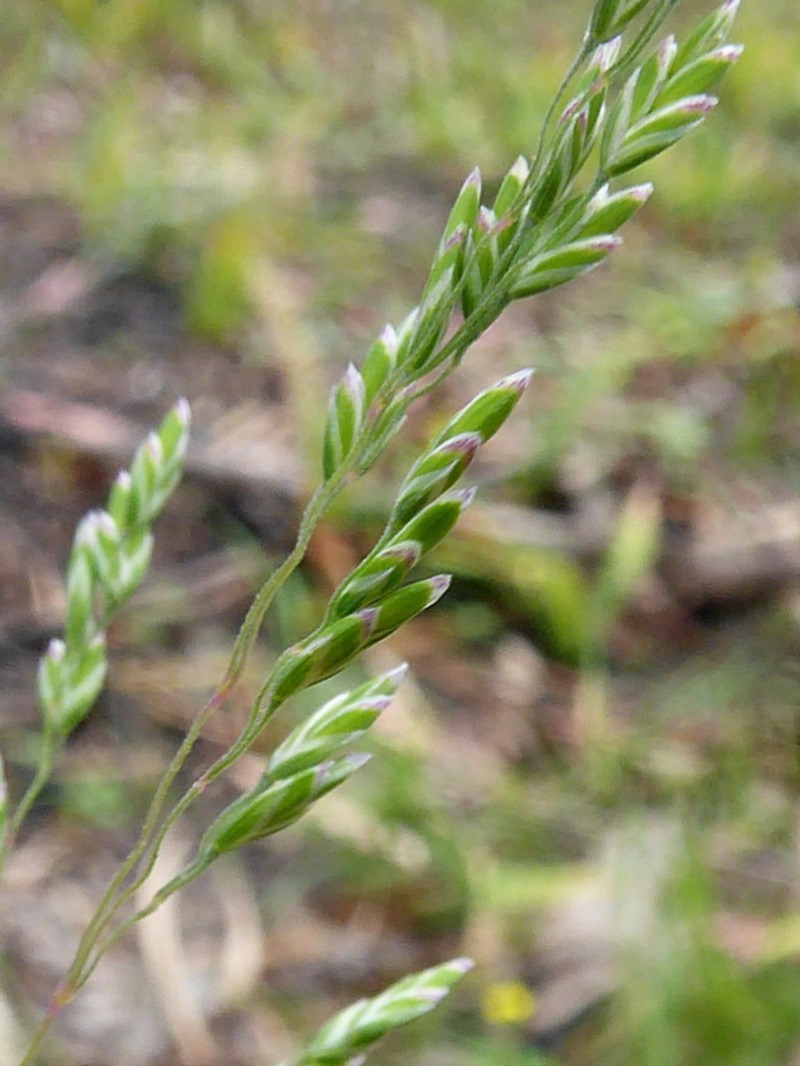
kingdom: Plantae
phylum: Tracheophyta
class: Liliopsida
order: Poales
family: Poaceae
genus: Poa
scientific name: Poa meionectes
